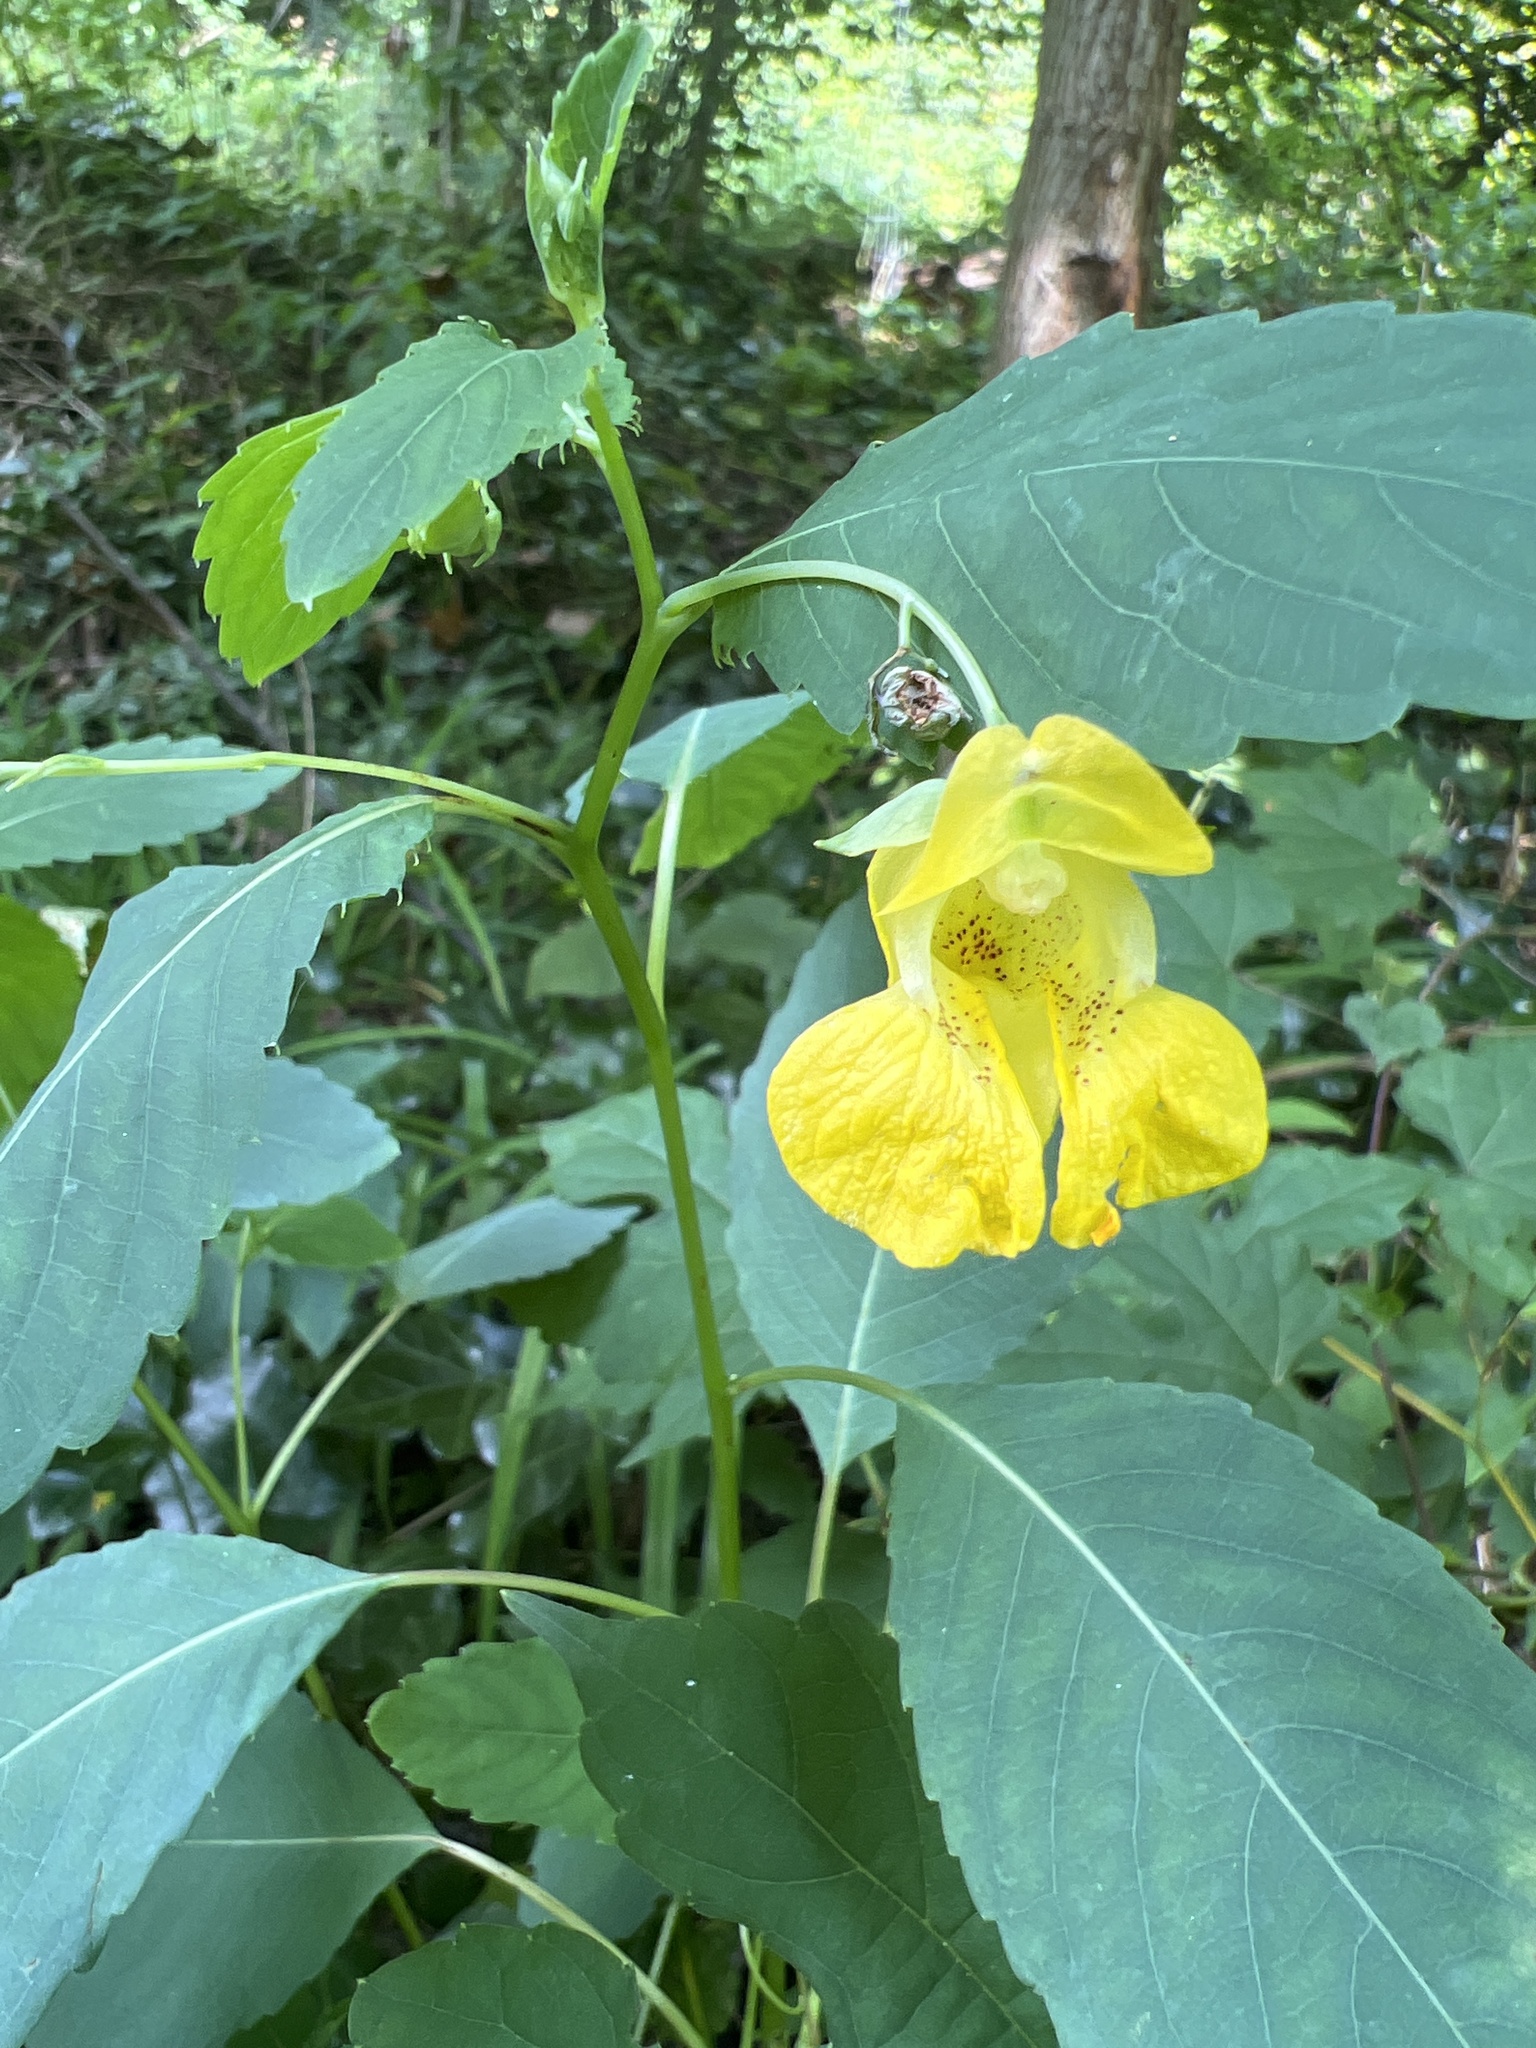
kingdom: Plantae
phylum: Tracheophyta
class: Magnoliopsida
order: Ericales
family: Balsaminaceae
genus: Impatiens
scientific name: Impatiens pallida
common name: Pale snapweed
